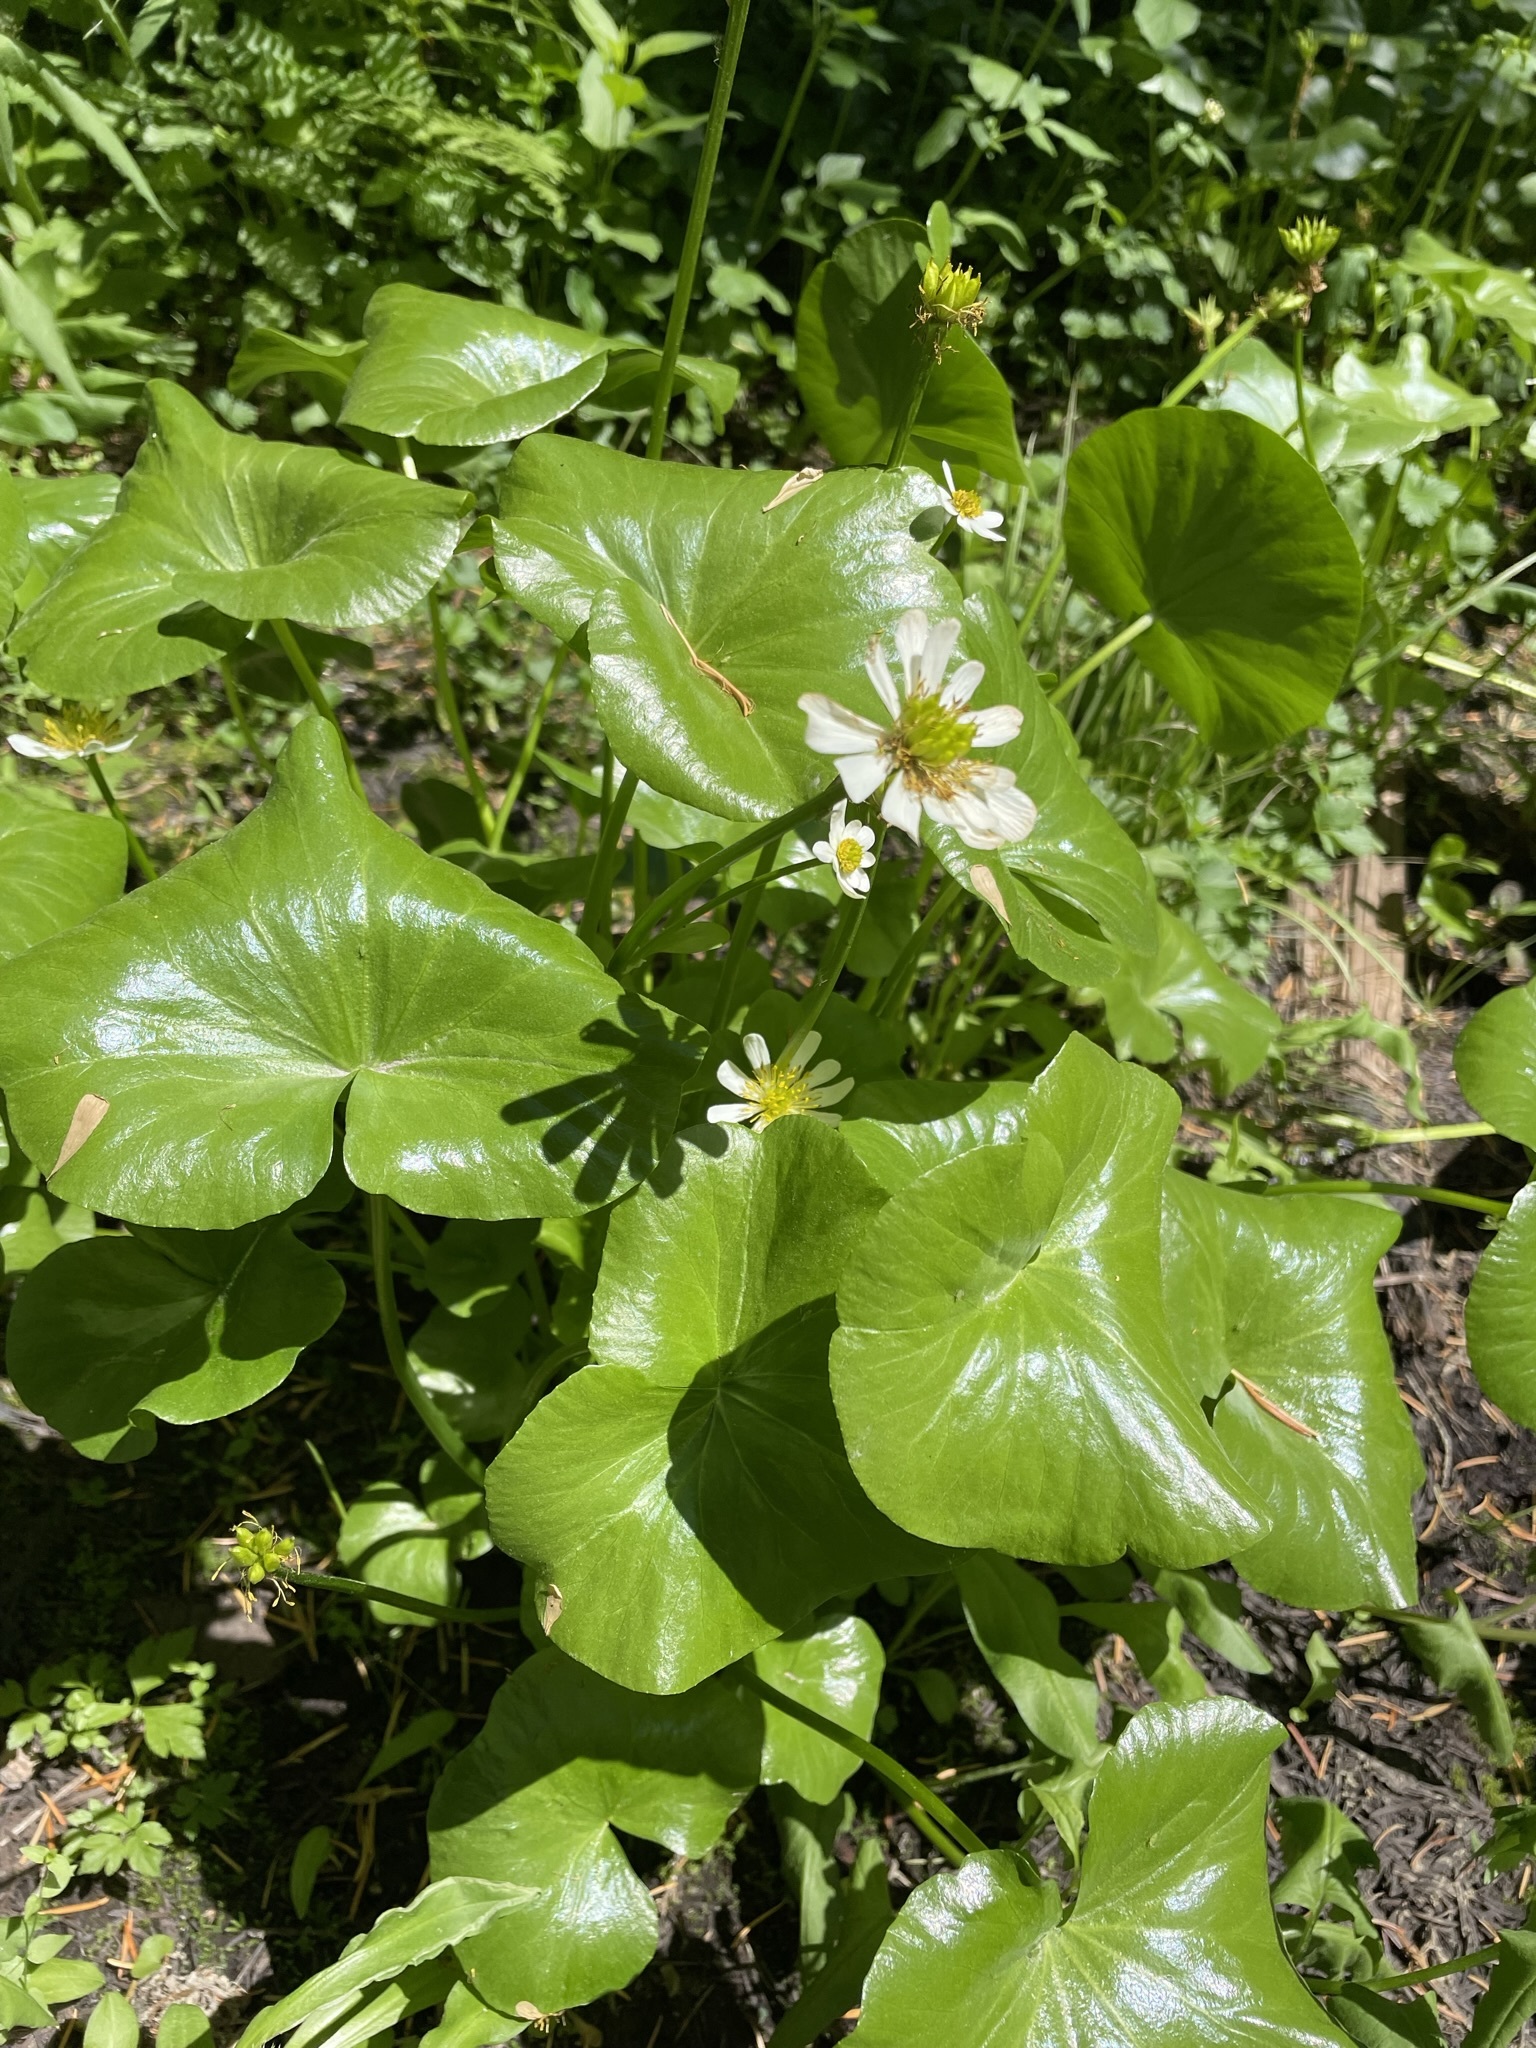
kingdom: Plantae
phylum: Tracheophyta
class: Magnoliopsida
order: Ranunculales
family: Ranunculaceae
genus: Caltha
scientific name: Caltha leptosepala
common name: Elkslip
